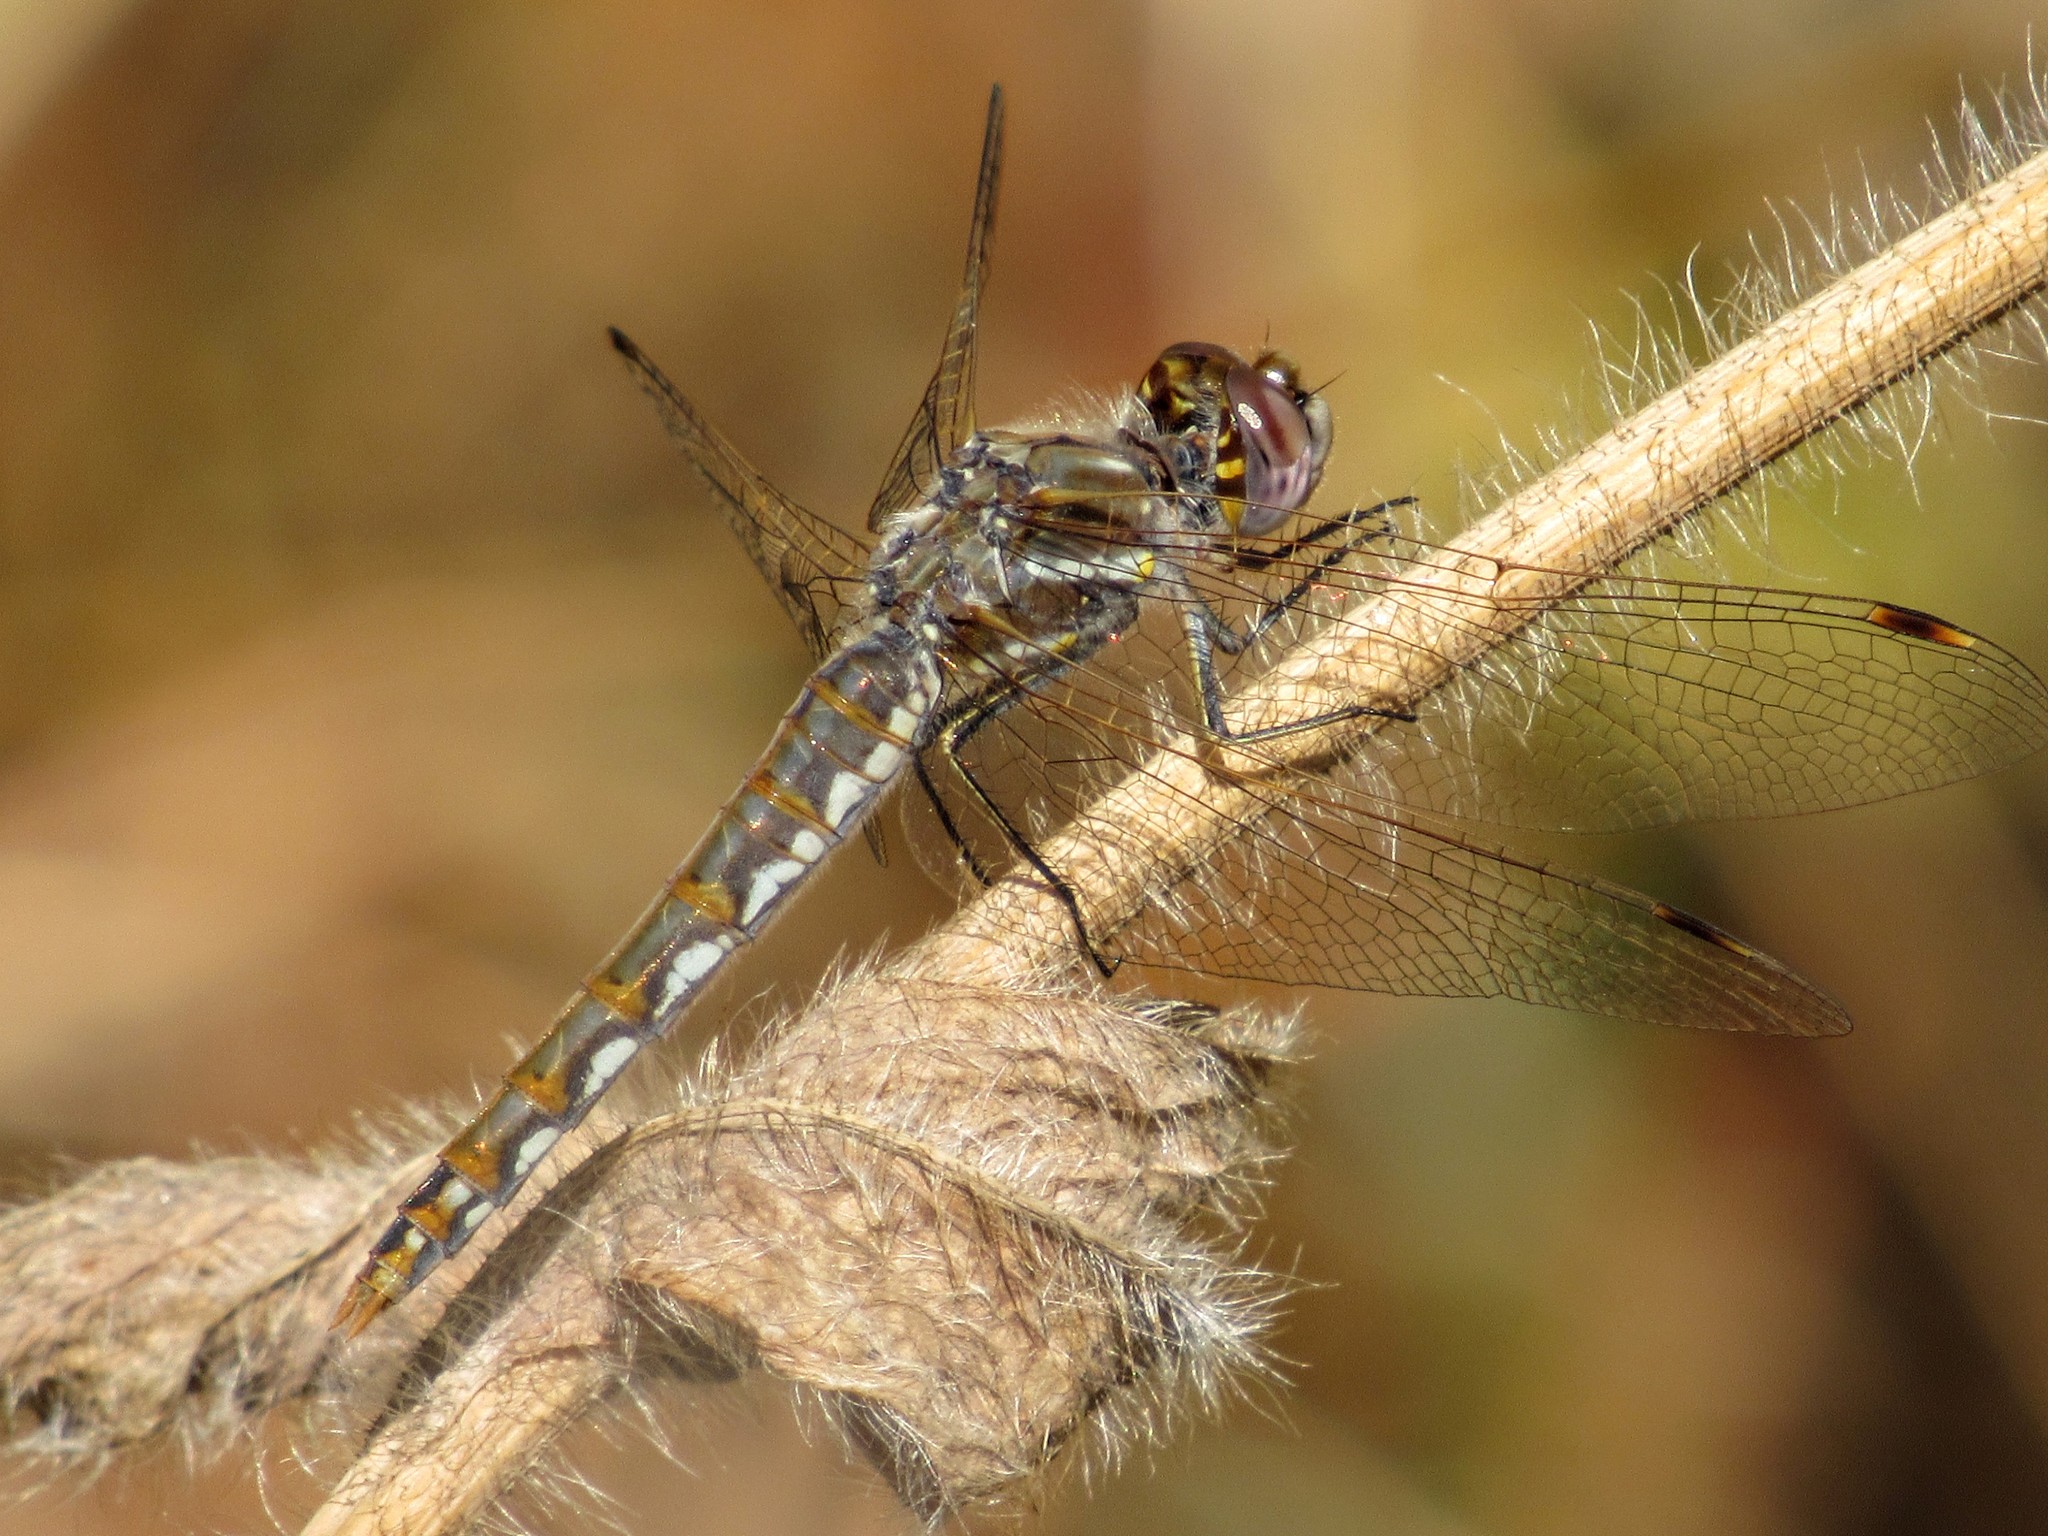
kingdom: Animalia
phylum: Arthropoda
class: Insecta
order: Odonata
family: Libellulidae
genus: Sympetrum
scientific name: Sympetrum corruptum
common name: Variegated meadowhawk
